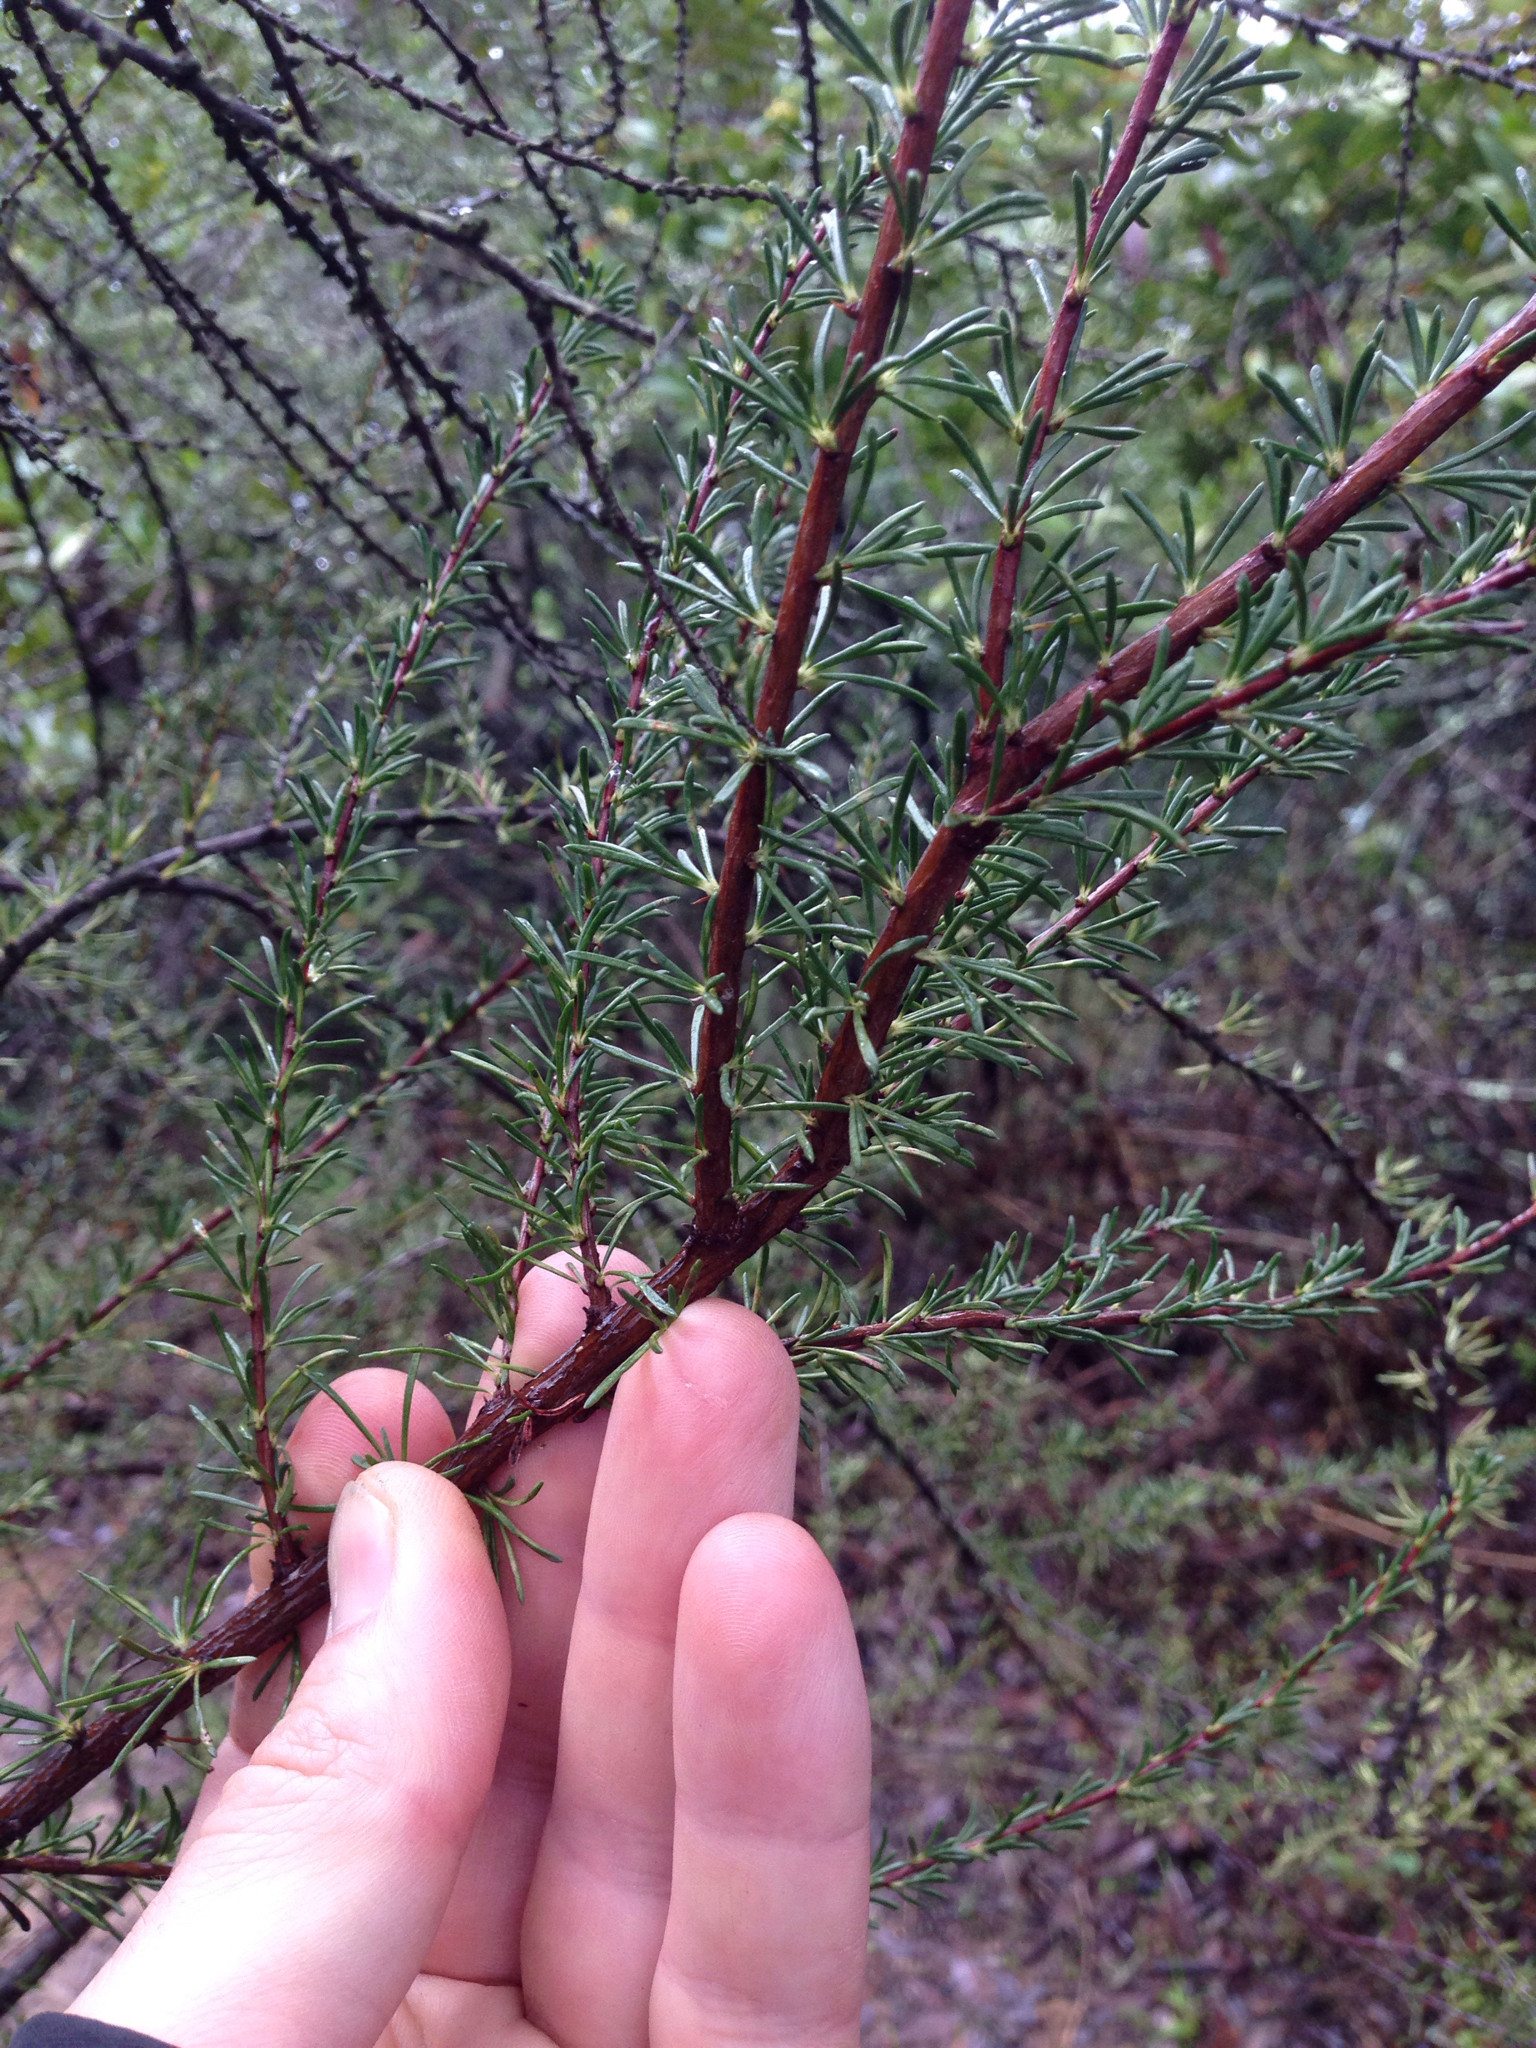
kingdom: Plantae
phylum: Tracheophyta
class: Magnoliopsida
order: Rosales
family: Rosaceae
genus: Adenostoma
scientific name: Adenostoma fasciculatum
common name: Chamise
